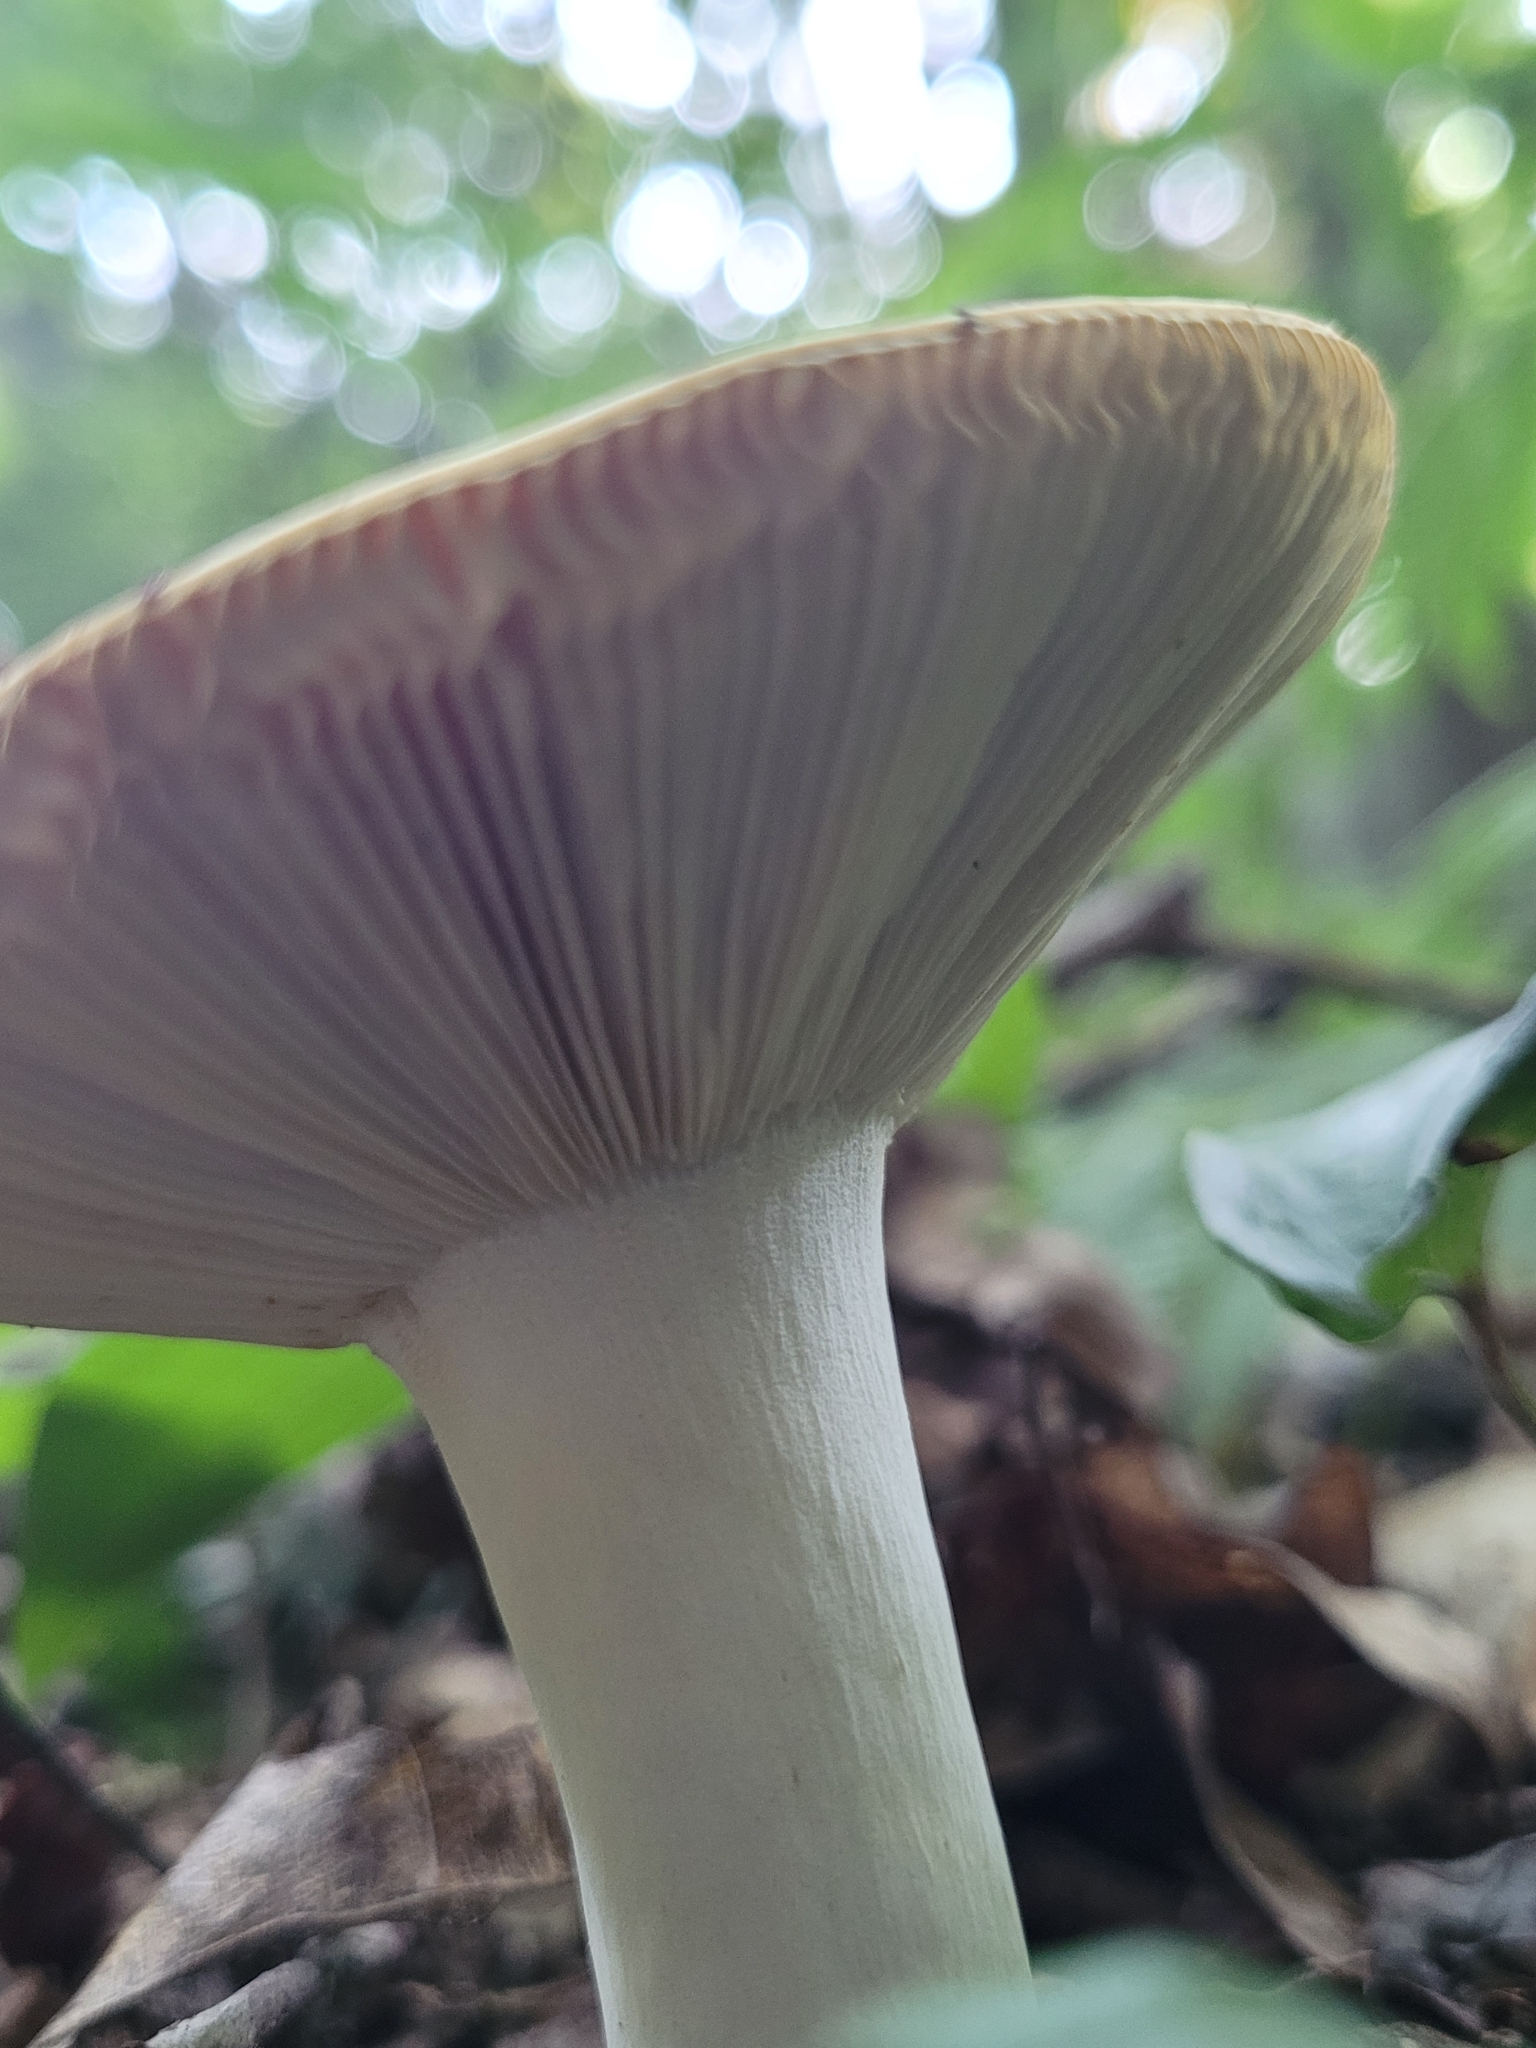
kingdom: Fungi
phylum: Basidiomycota
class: Agaricomycetes
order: Russulales
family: Russulaceae
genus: Russula
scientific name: Russula ochroleucoides
